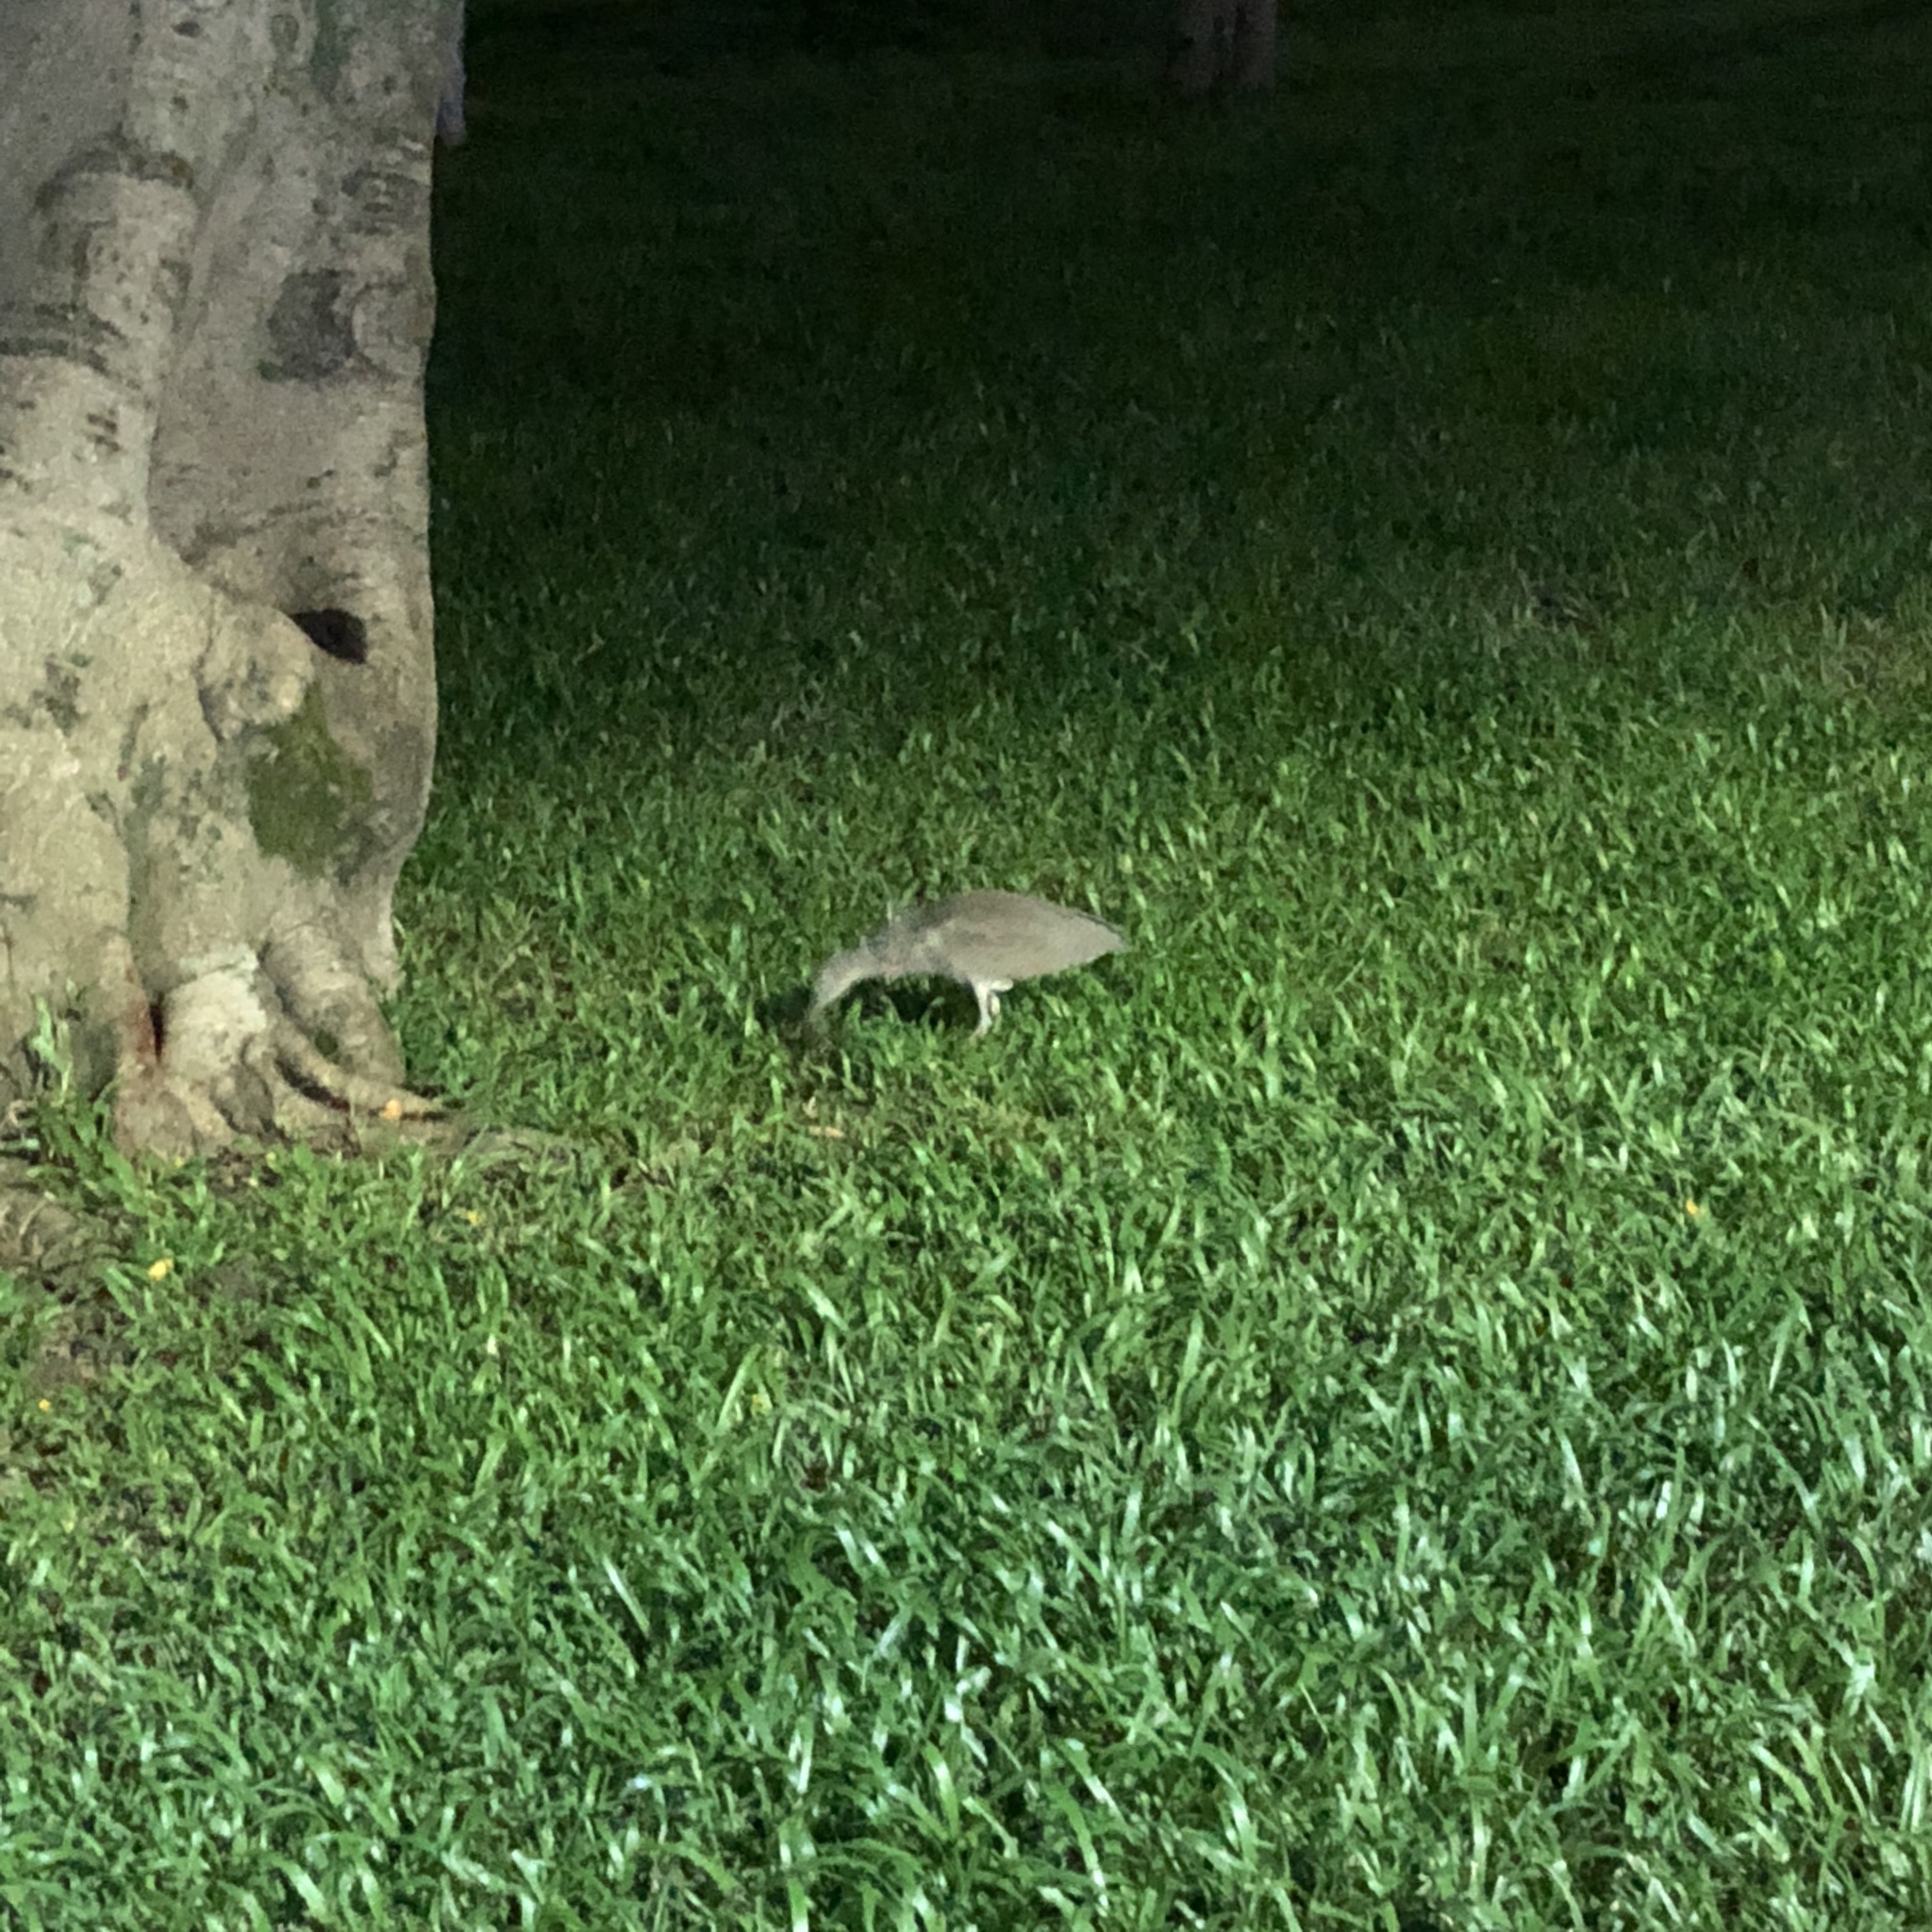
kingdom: Animalia
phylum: Chordata
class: Aves
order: Pelecaniformes
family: Ardeidae
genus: Gorsachius
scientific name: Gorsachius melanolophus
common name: Malayan night heron
